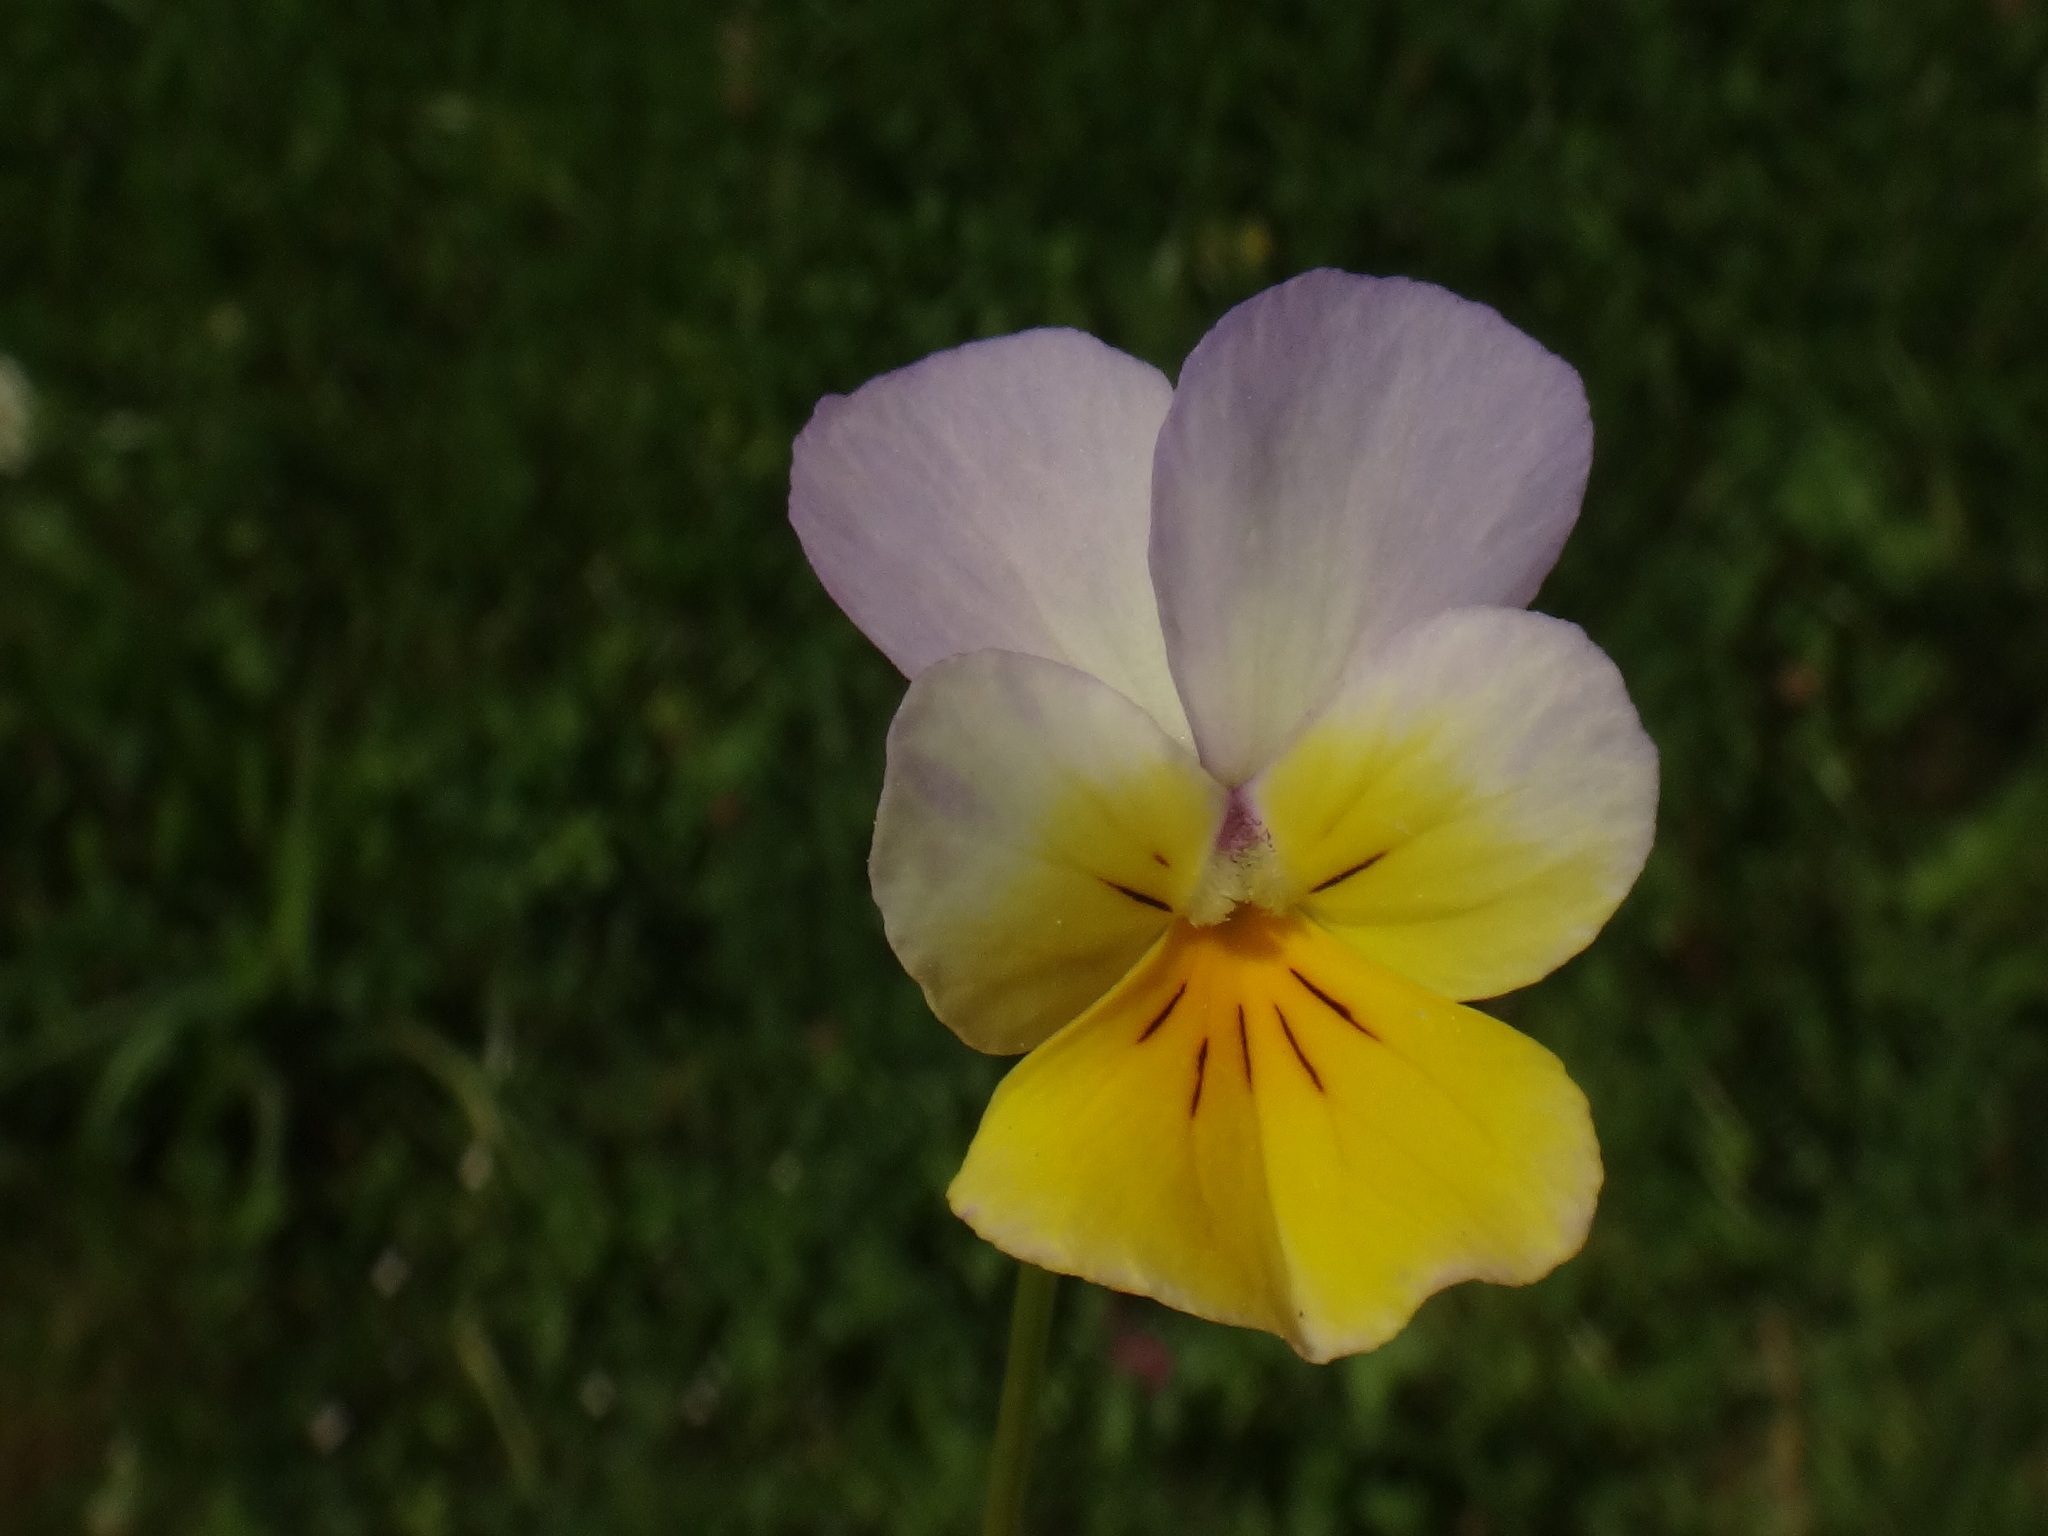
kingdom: Plantae
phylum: Tracheophyta
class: Magnoliopsida
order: Malpighiales
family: Violaceae
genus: Viola
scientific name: Viola tricolor
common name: Pansy
